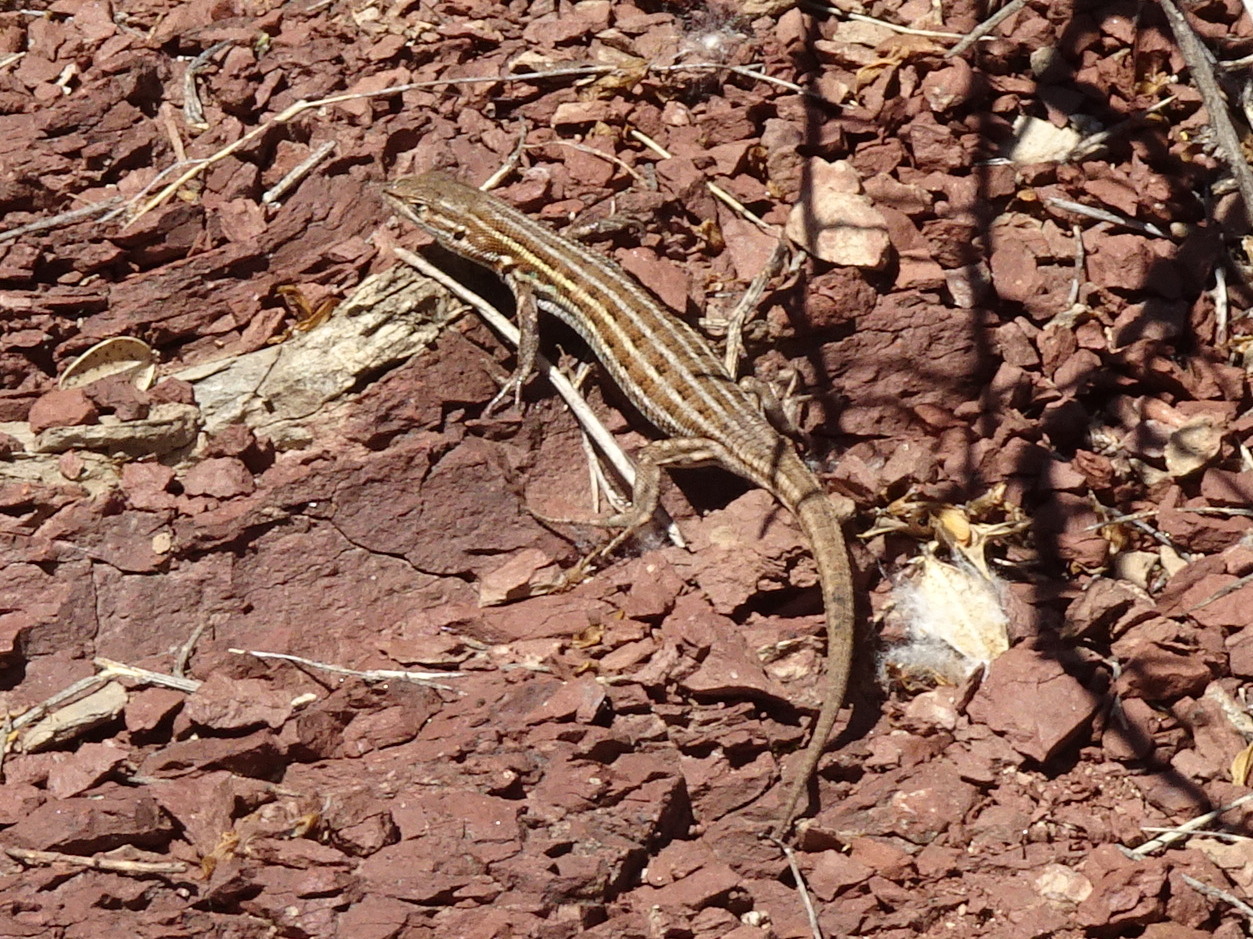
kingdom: Animalia
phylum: Chordata
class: Squamata
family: Lacertidae
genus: Psammodromus
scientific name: Psammodromus edwarsianus
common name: East iberian psammodromus
